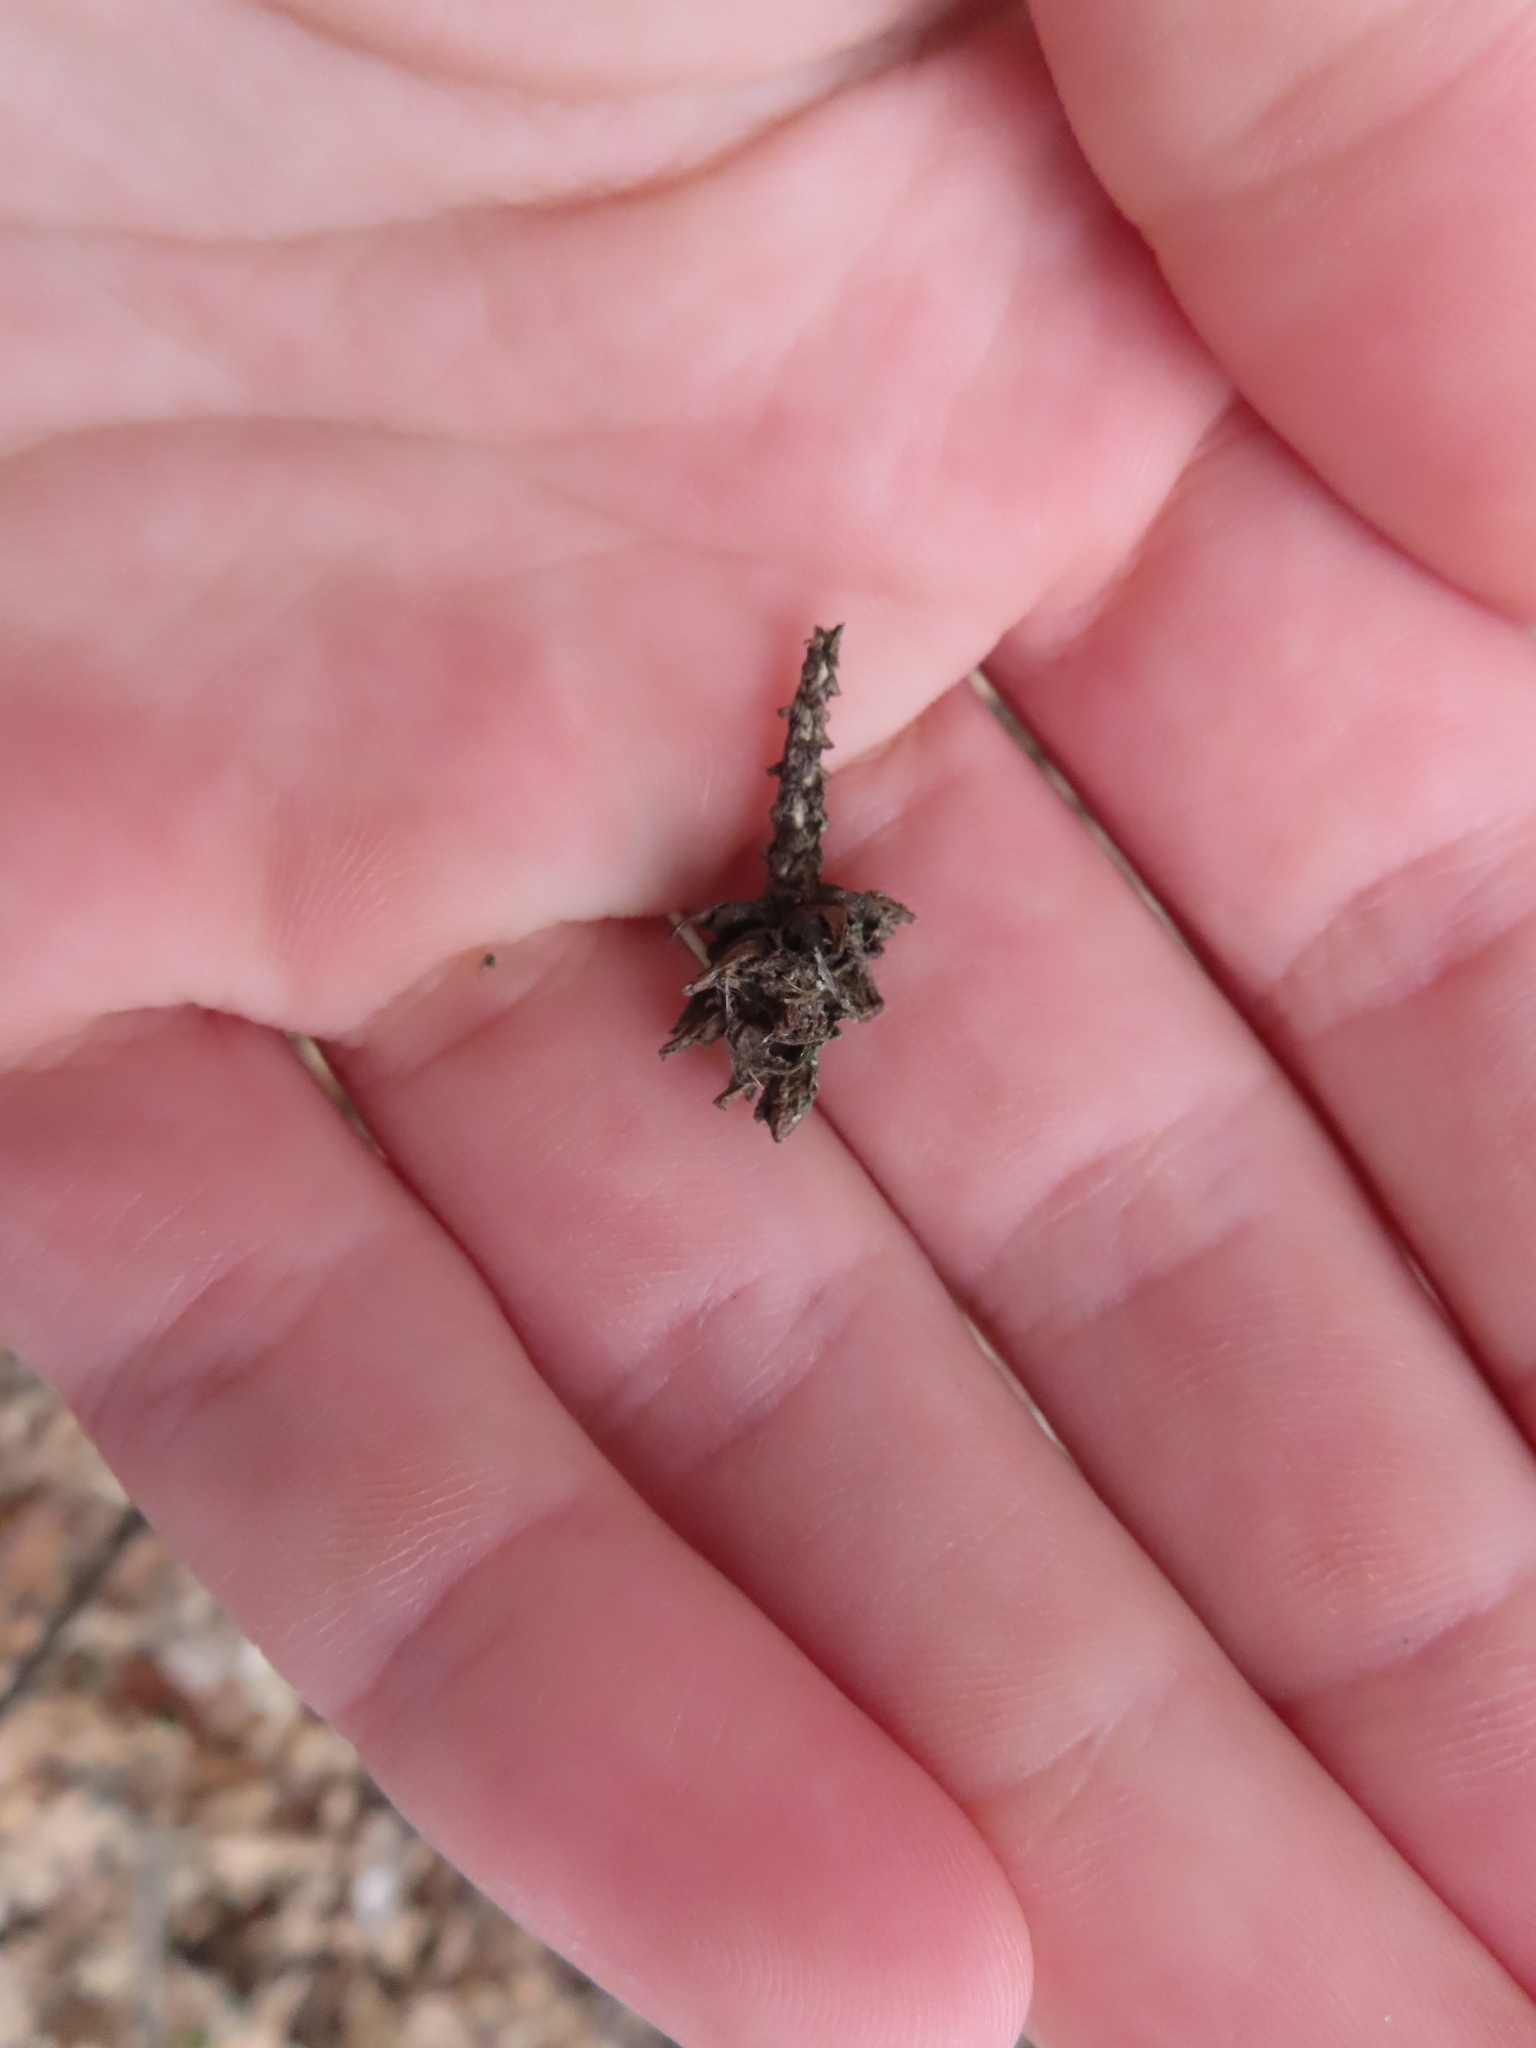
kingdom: Animalia
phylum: Arthropoda
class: Insecta
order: Hemiptera
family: Adelgidae
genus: Adelges
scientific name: Adelges abietis
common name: Eastern spruce gall adelgid
